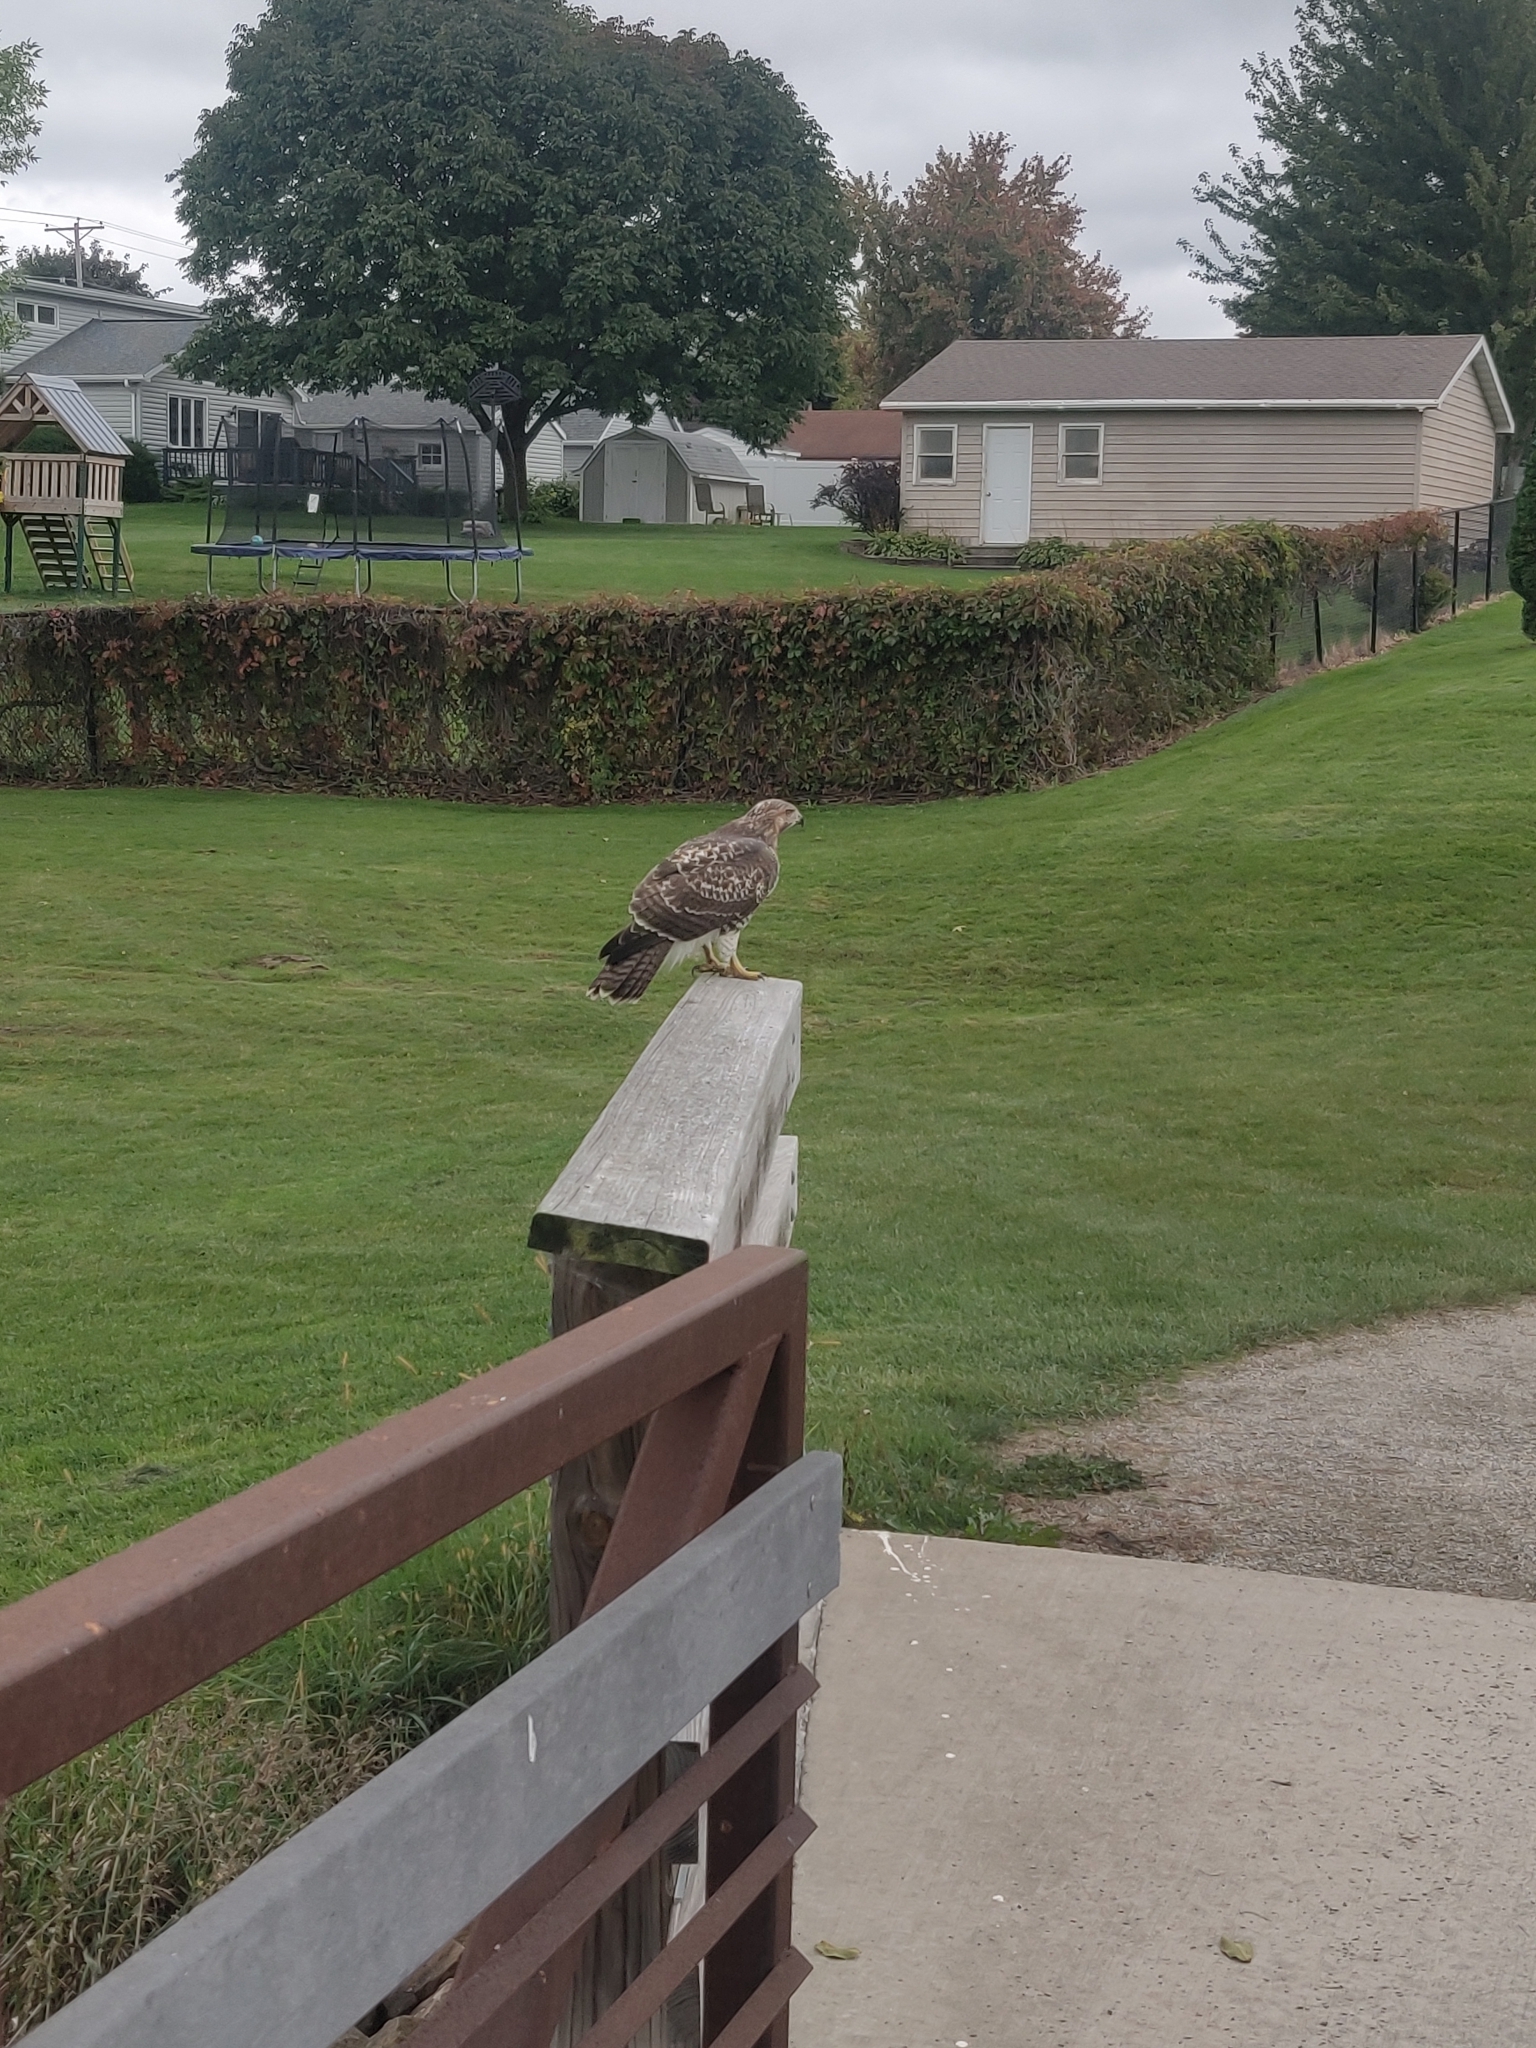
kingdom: Animalia
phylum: Chordata
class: Aves
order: Accipitriformes
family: Accipitridae
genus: Buteo
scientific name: Buteo jamaicensis
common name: Red-tailed hawk
